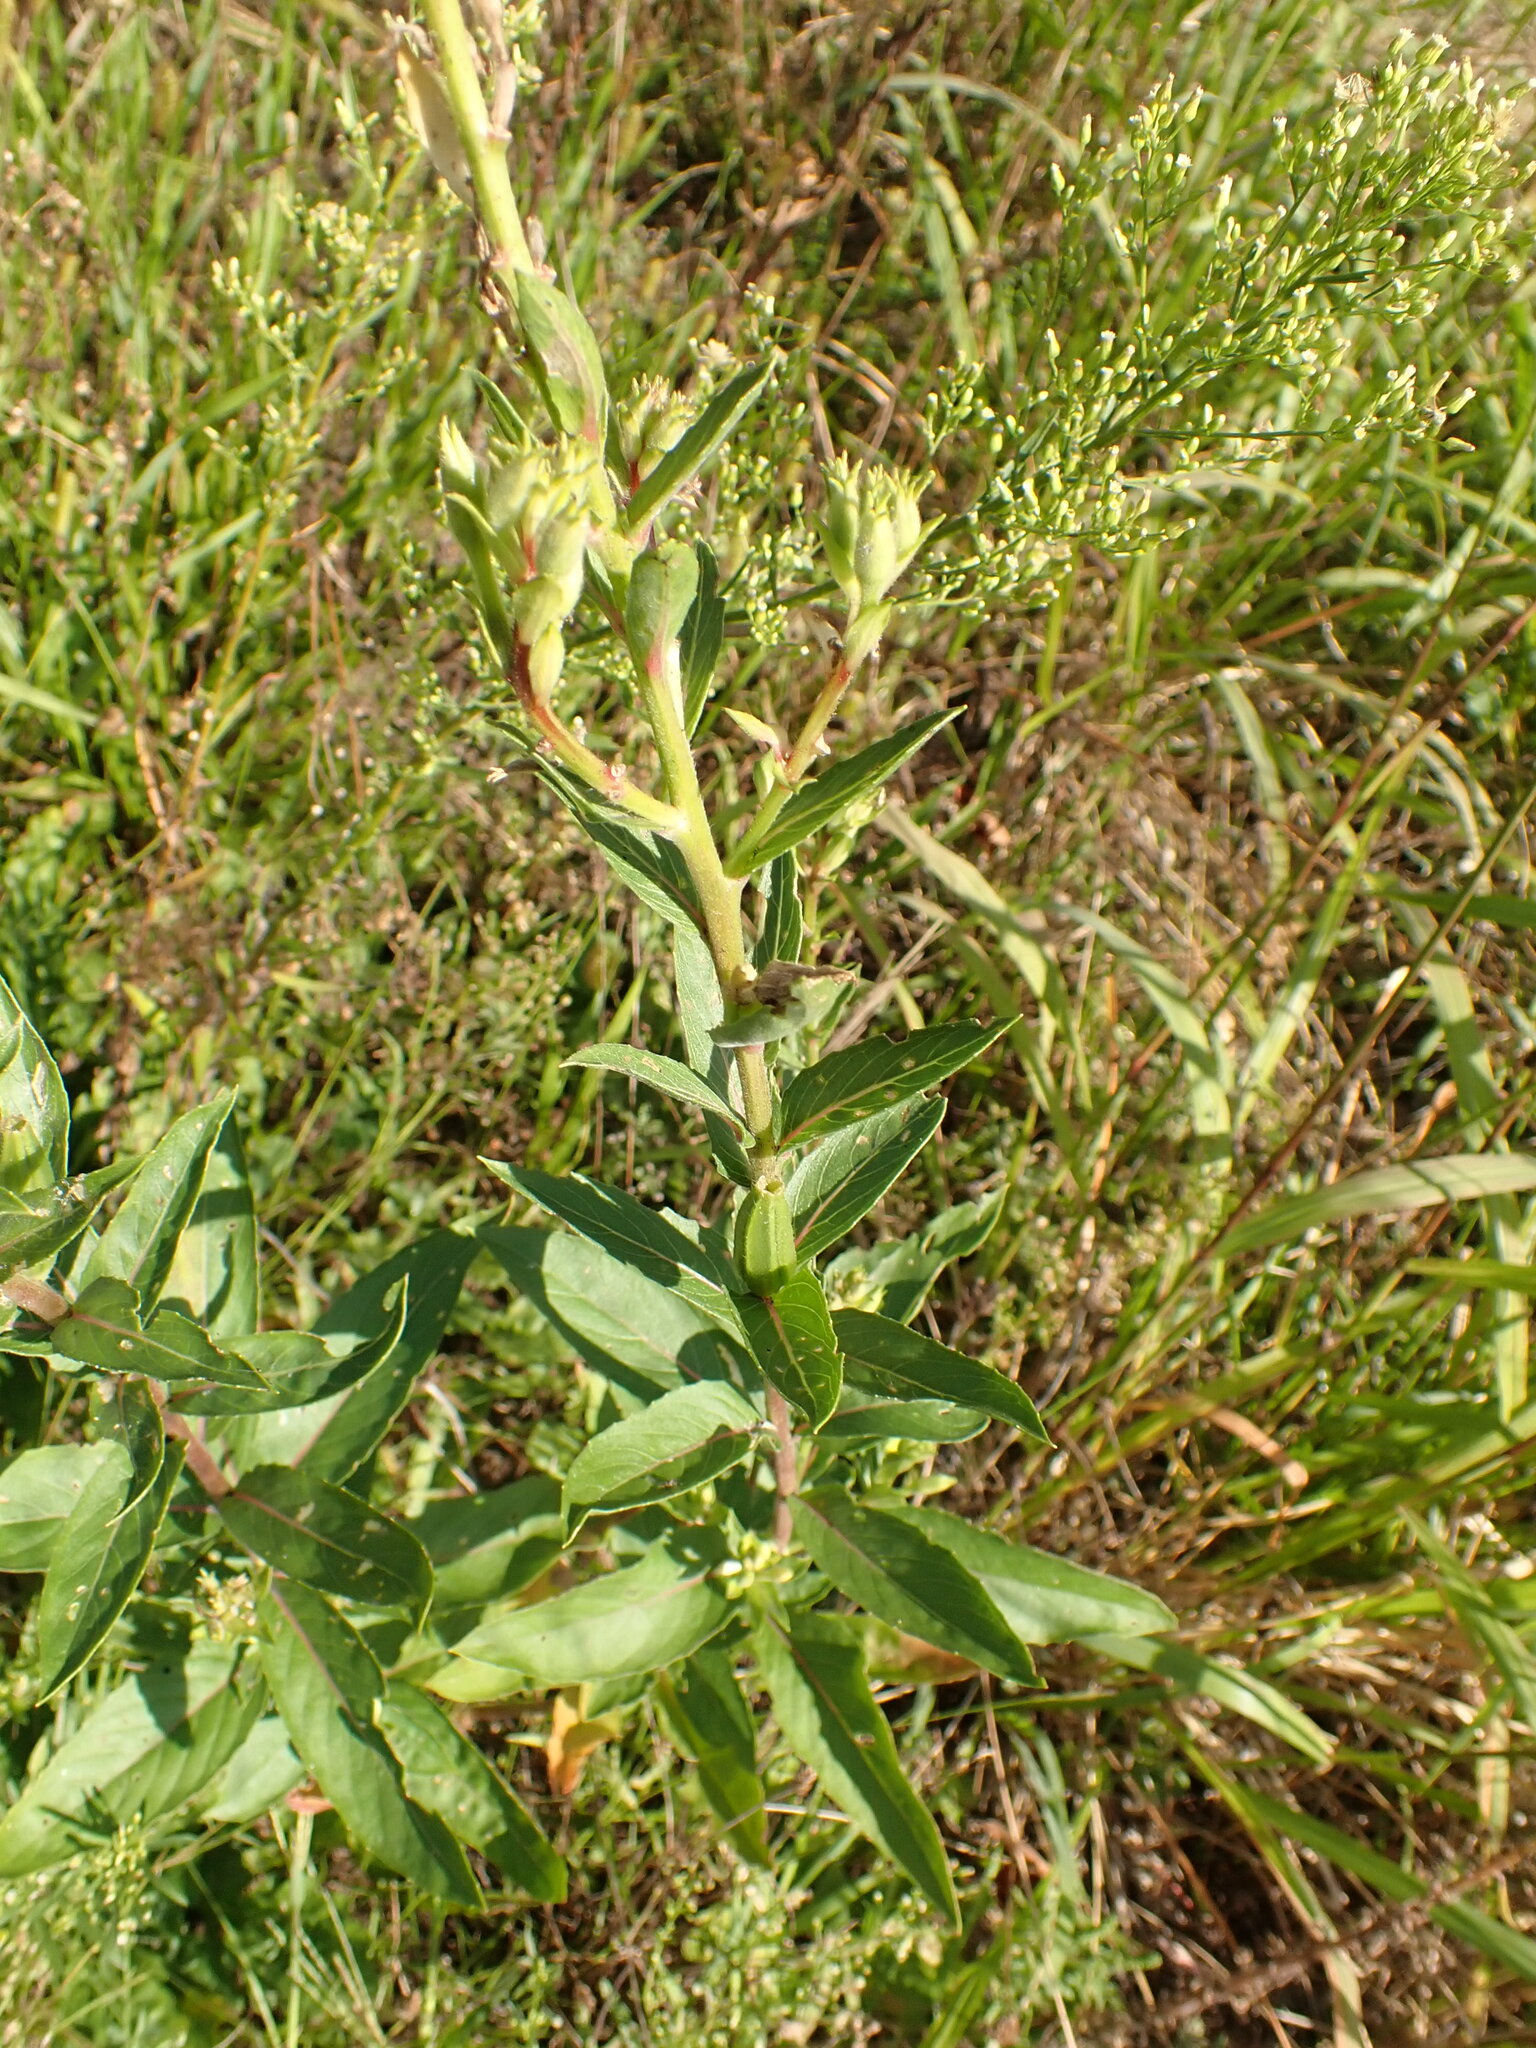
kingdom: Plantae
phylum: Tracheophyta
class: Magnoliopsida
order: Myrtales
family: Onagraceae
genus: Oenothera
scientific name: Oenothera biennis
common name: Common evening-primrose
